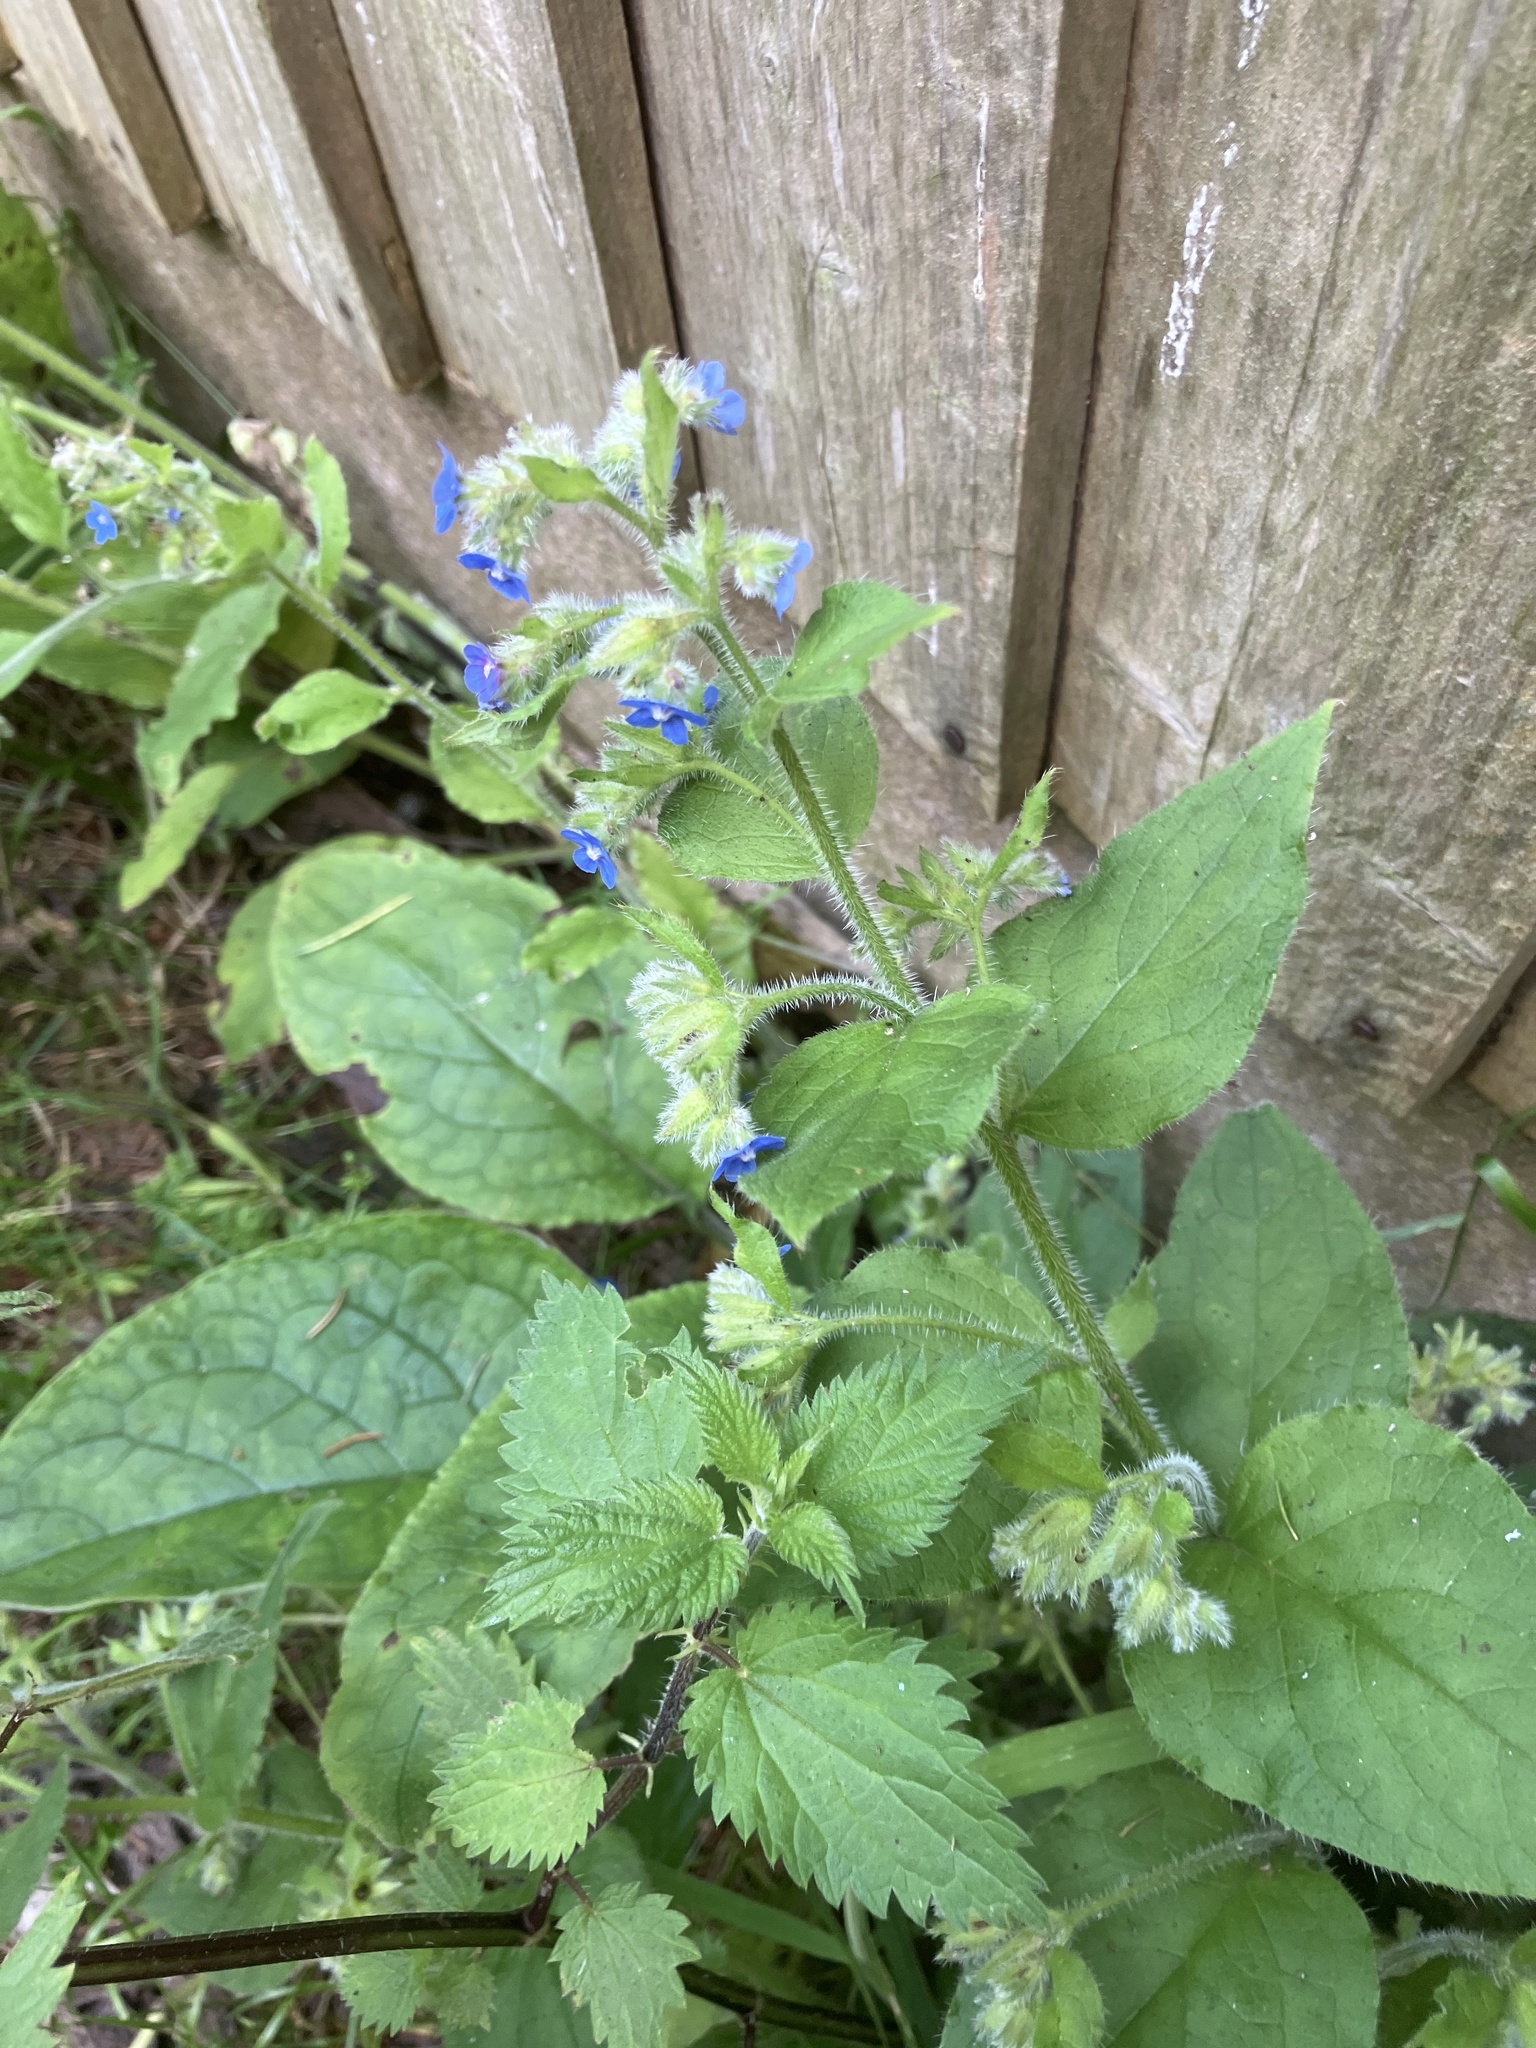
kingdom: Plantae
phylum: Tracheophyta
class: Magnoliopsida
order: Boraginales
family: Boraginaceae
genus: Pentaglottis
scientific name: Pentaglottis sempervirens
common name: Green alkanet
